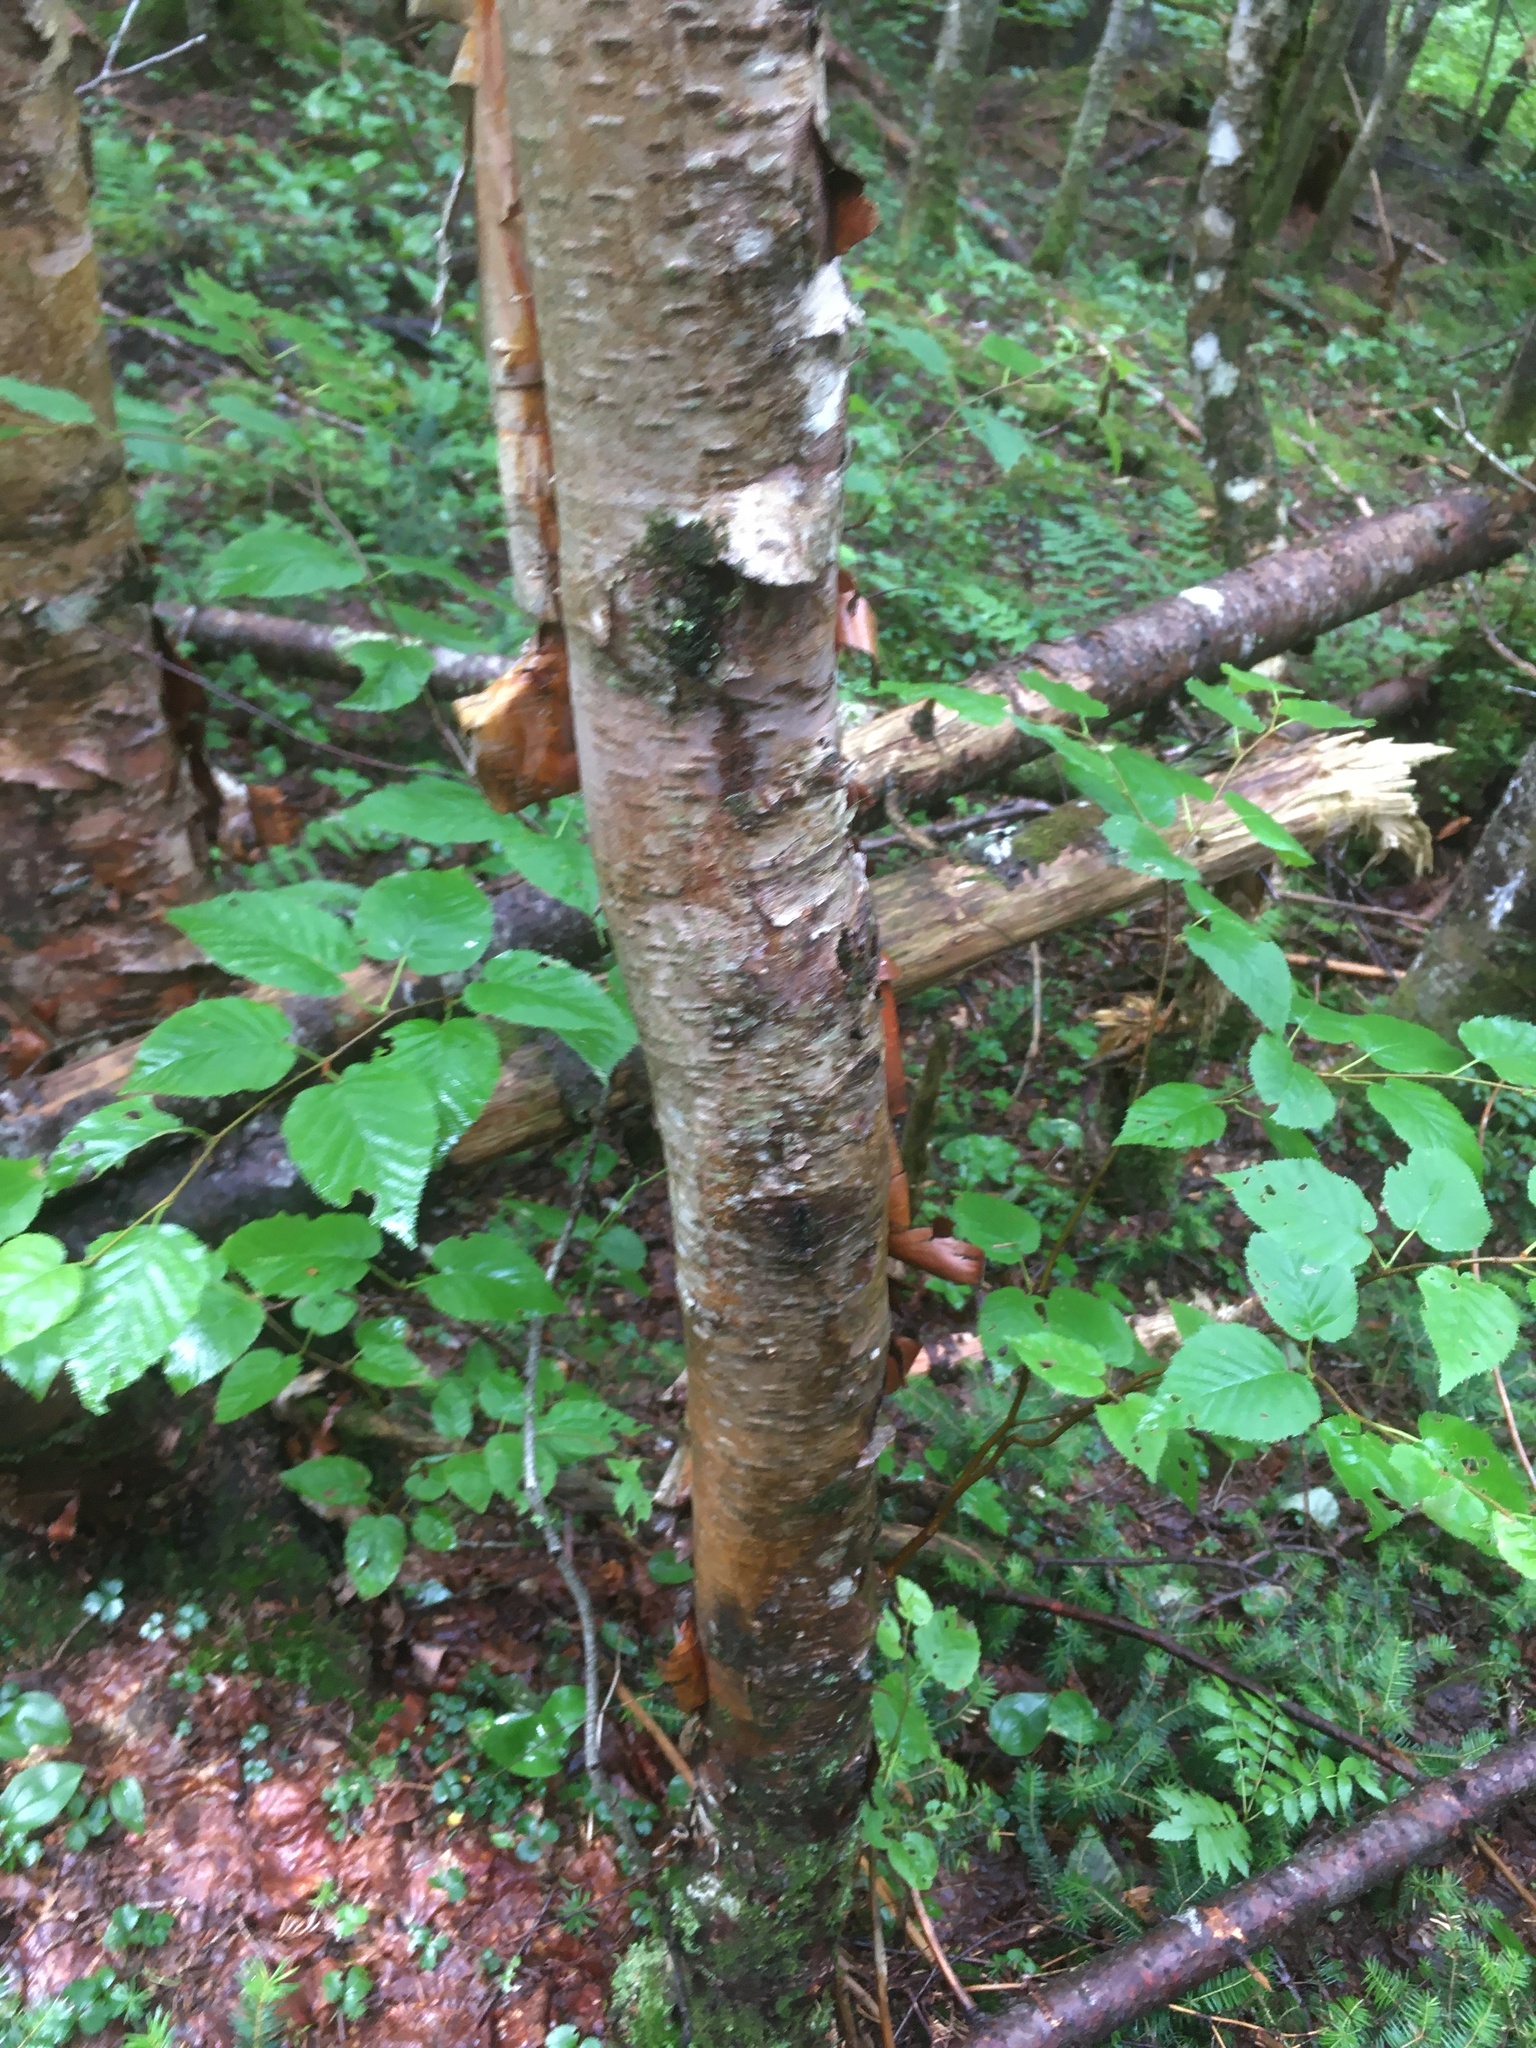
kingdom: Plantae
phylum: Tracheophyta
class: Magnoliopsida
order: Fagales
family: Betulaceae
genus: Betula
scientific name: Betula cordifolia
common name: Mountain white birch
